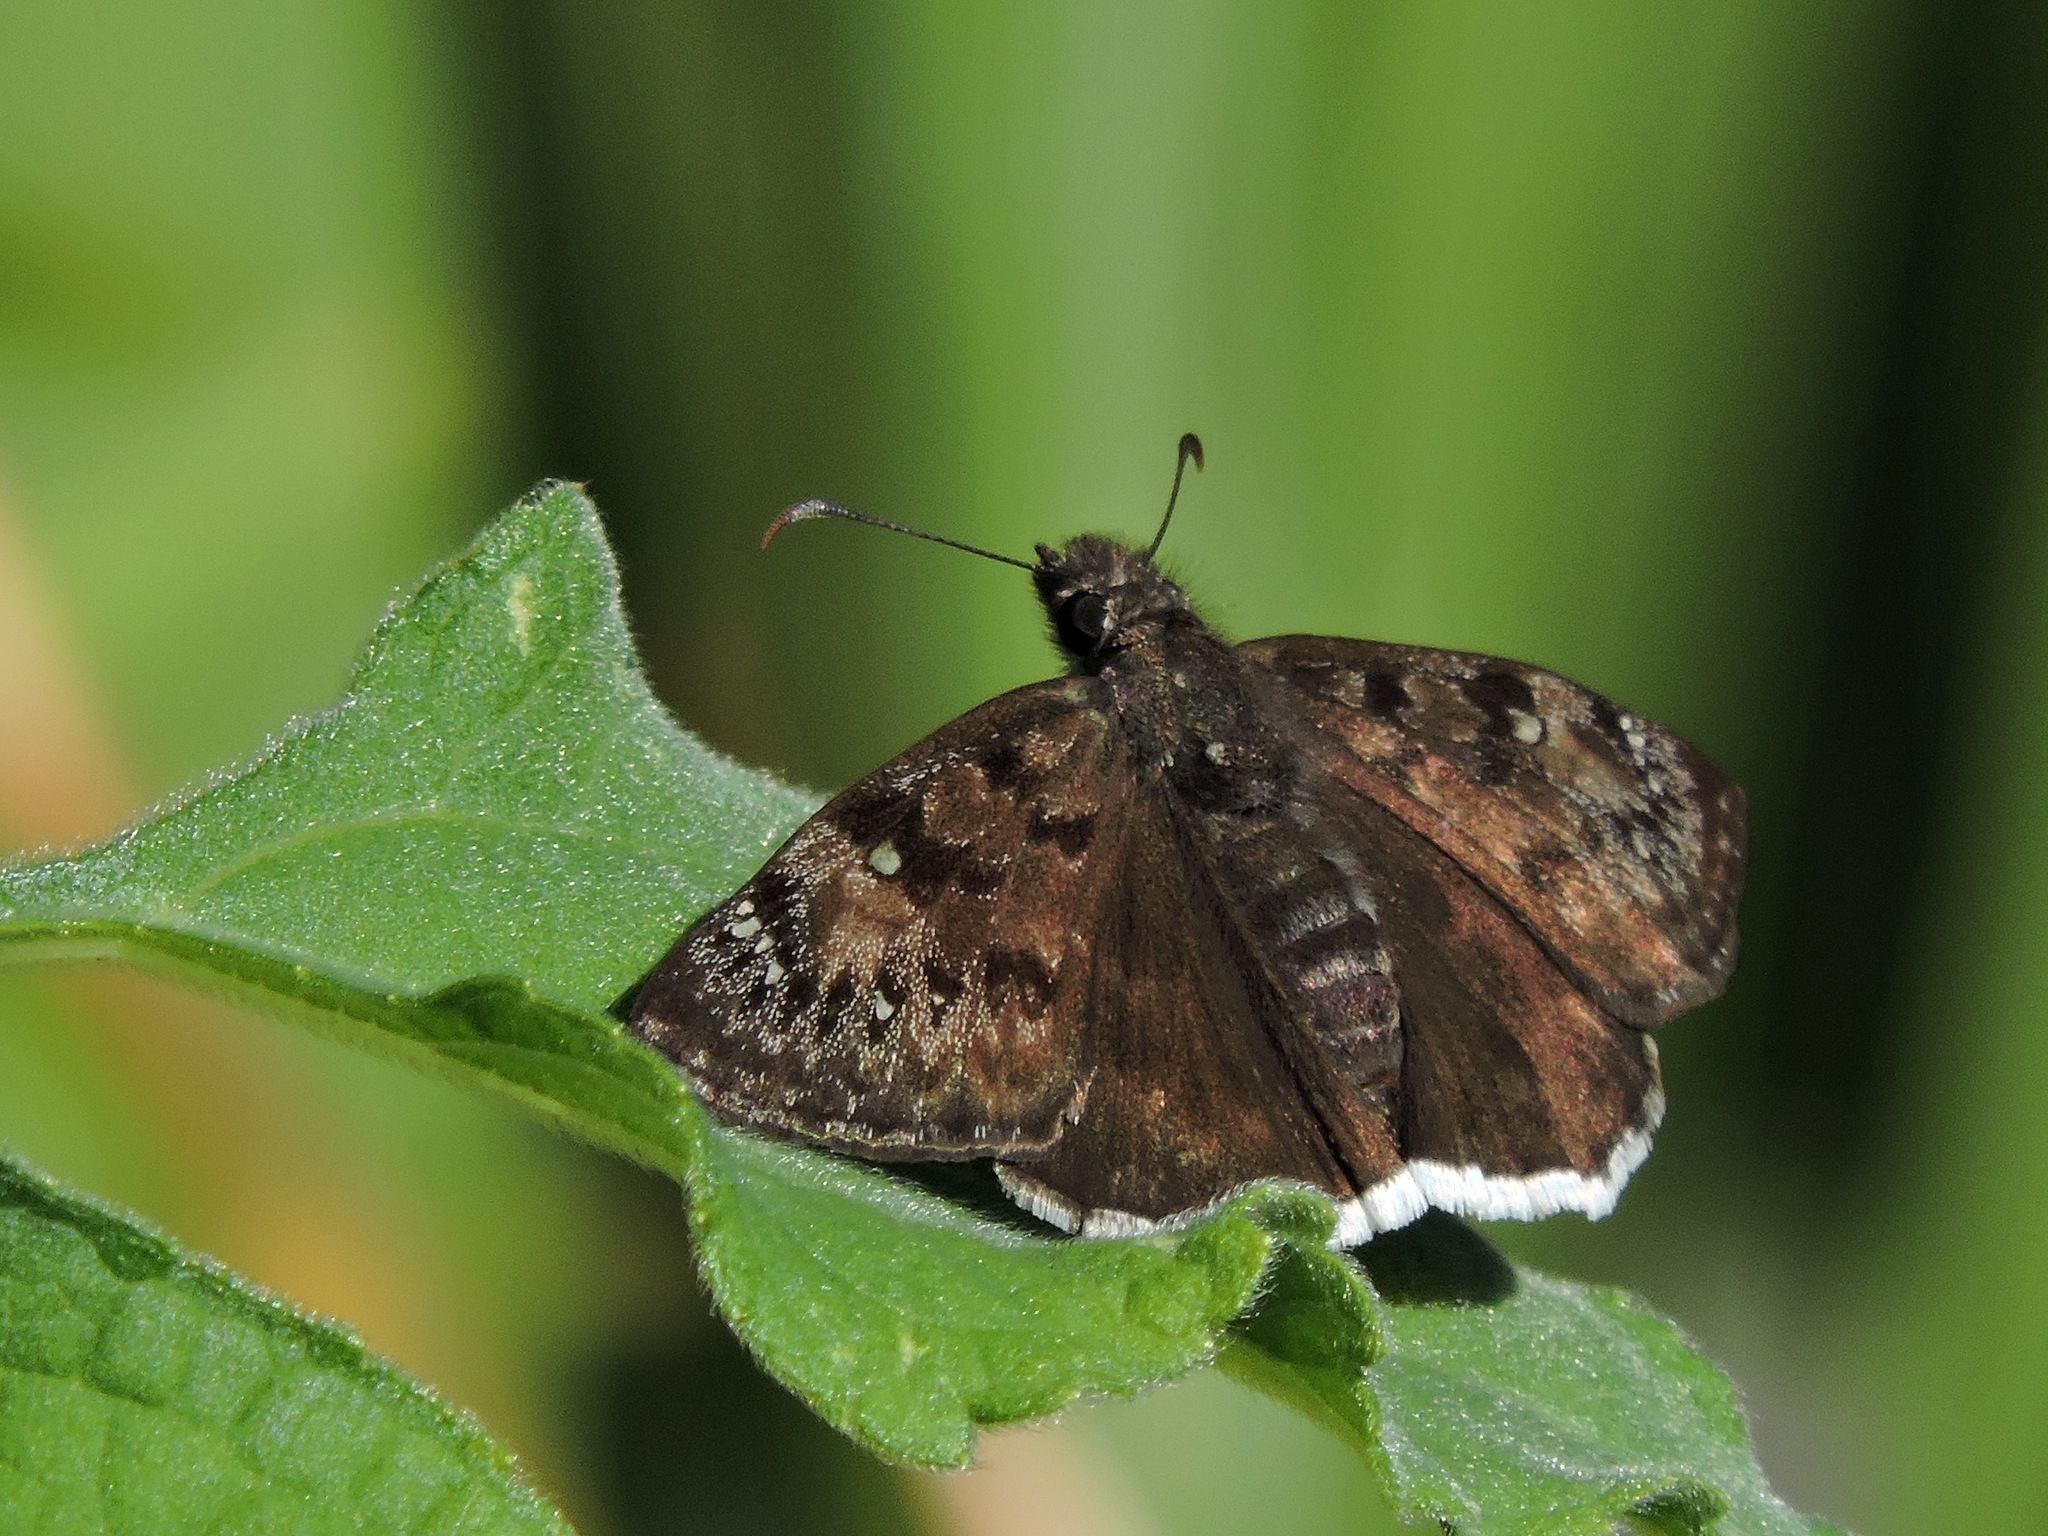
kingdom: Animalia
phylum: Arthropoda
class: Insecta
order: Lepidoptera
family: Hesperiidae
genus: Erynnis
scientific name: Erynnis tristis
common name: Mournful duskywing
